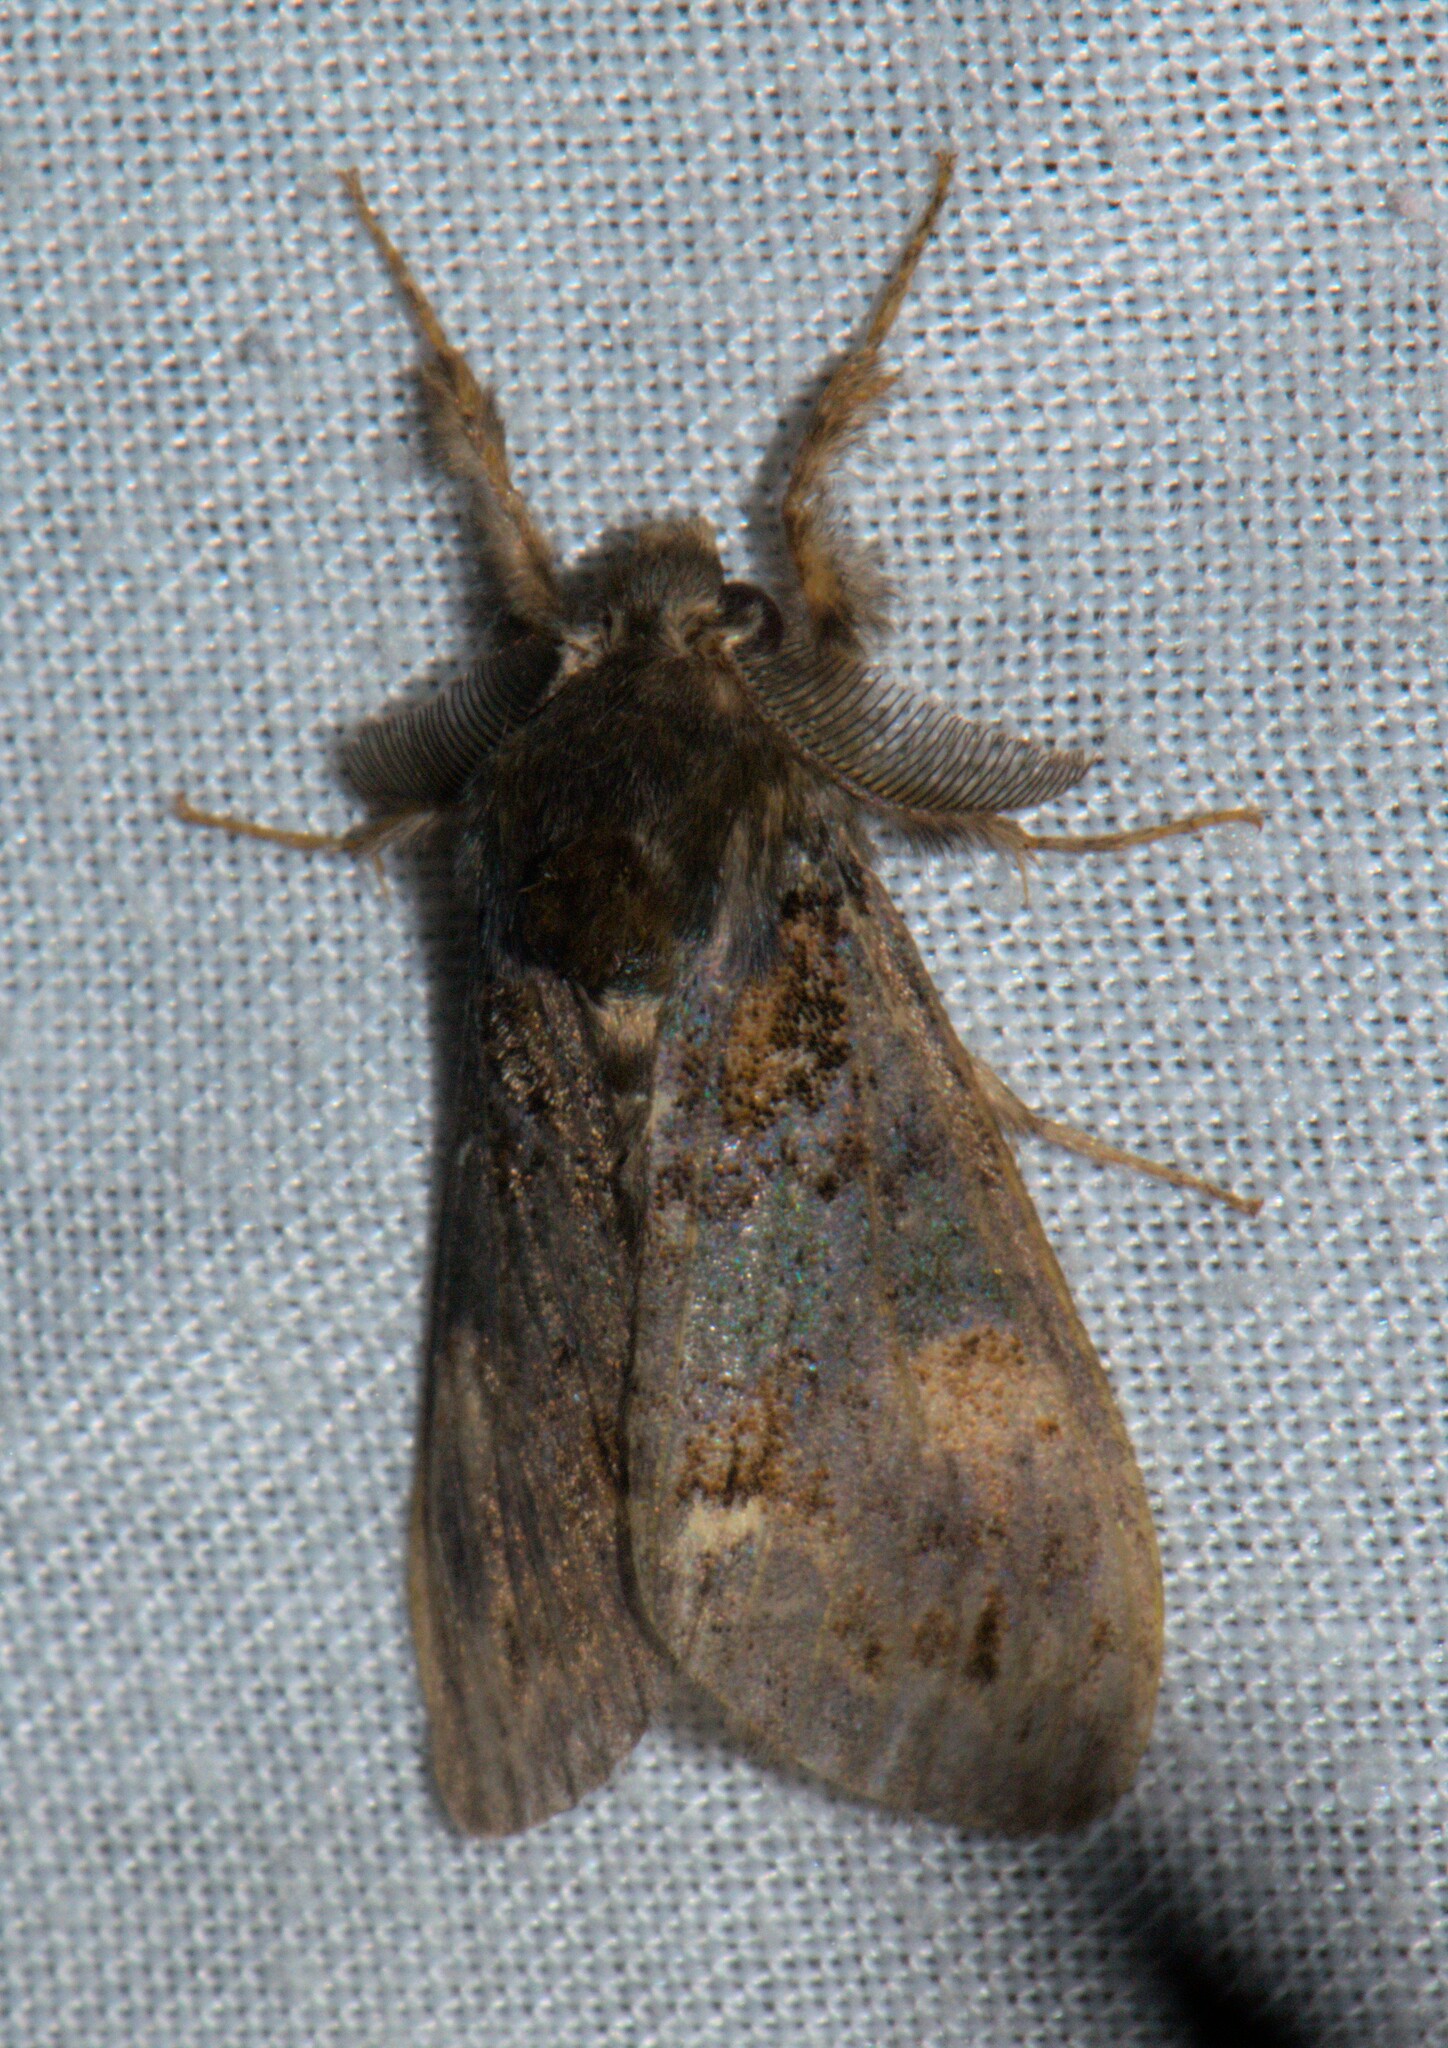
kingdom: Animalia
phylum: Arthropoda
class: Insecta
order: Lepidoptera
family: Erebidae
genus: Dasychira
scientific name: Dasychira flavimacula
